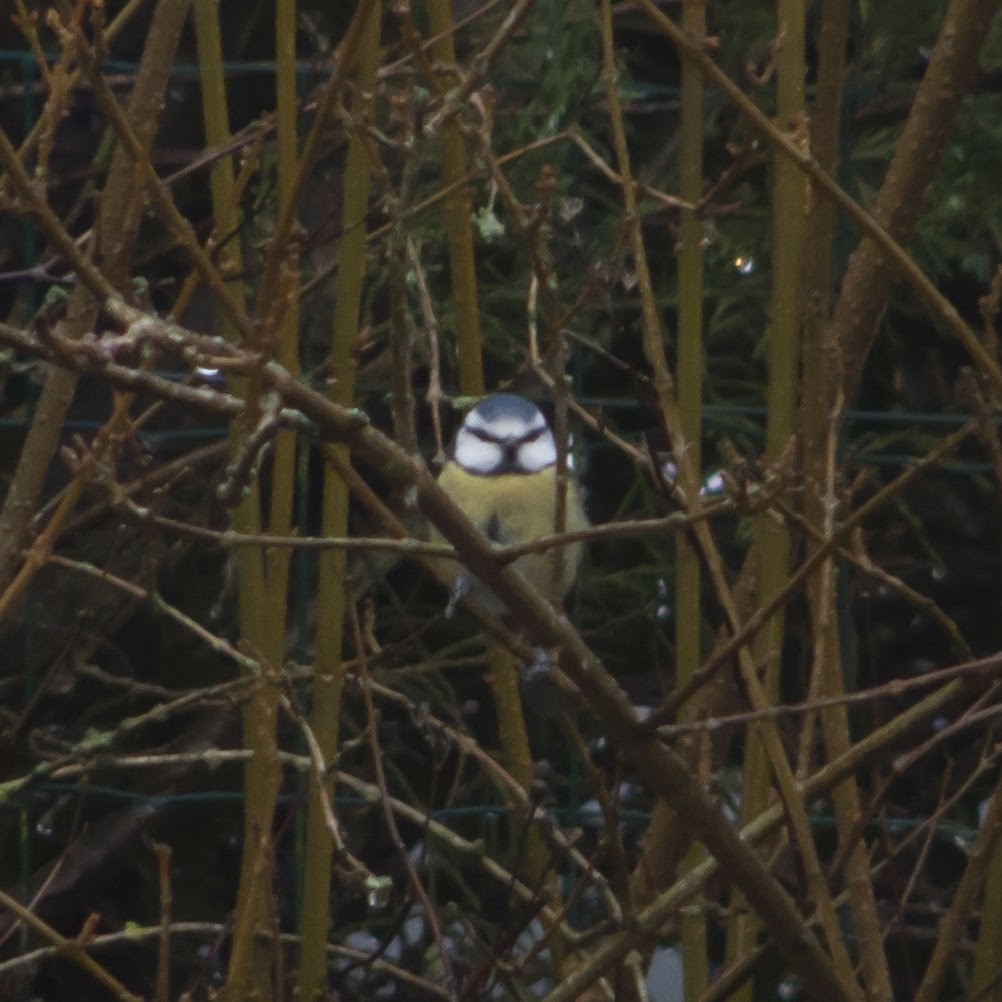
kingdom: Animalia
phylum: Chordata
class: Aves
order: Passeriformes
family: Paridae
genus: Cyanistes
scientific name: Cyanistes caeruleus
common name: Eurasian blue tit
